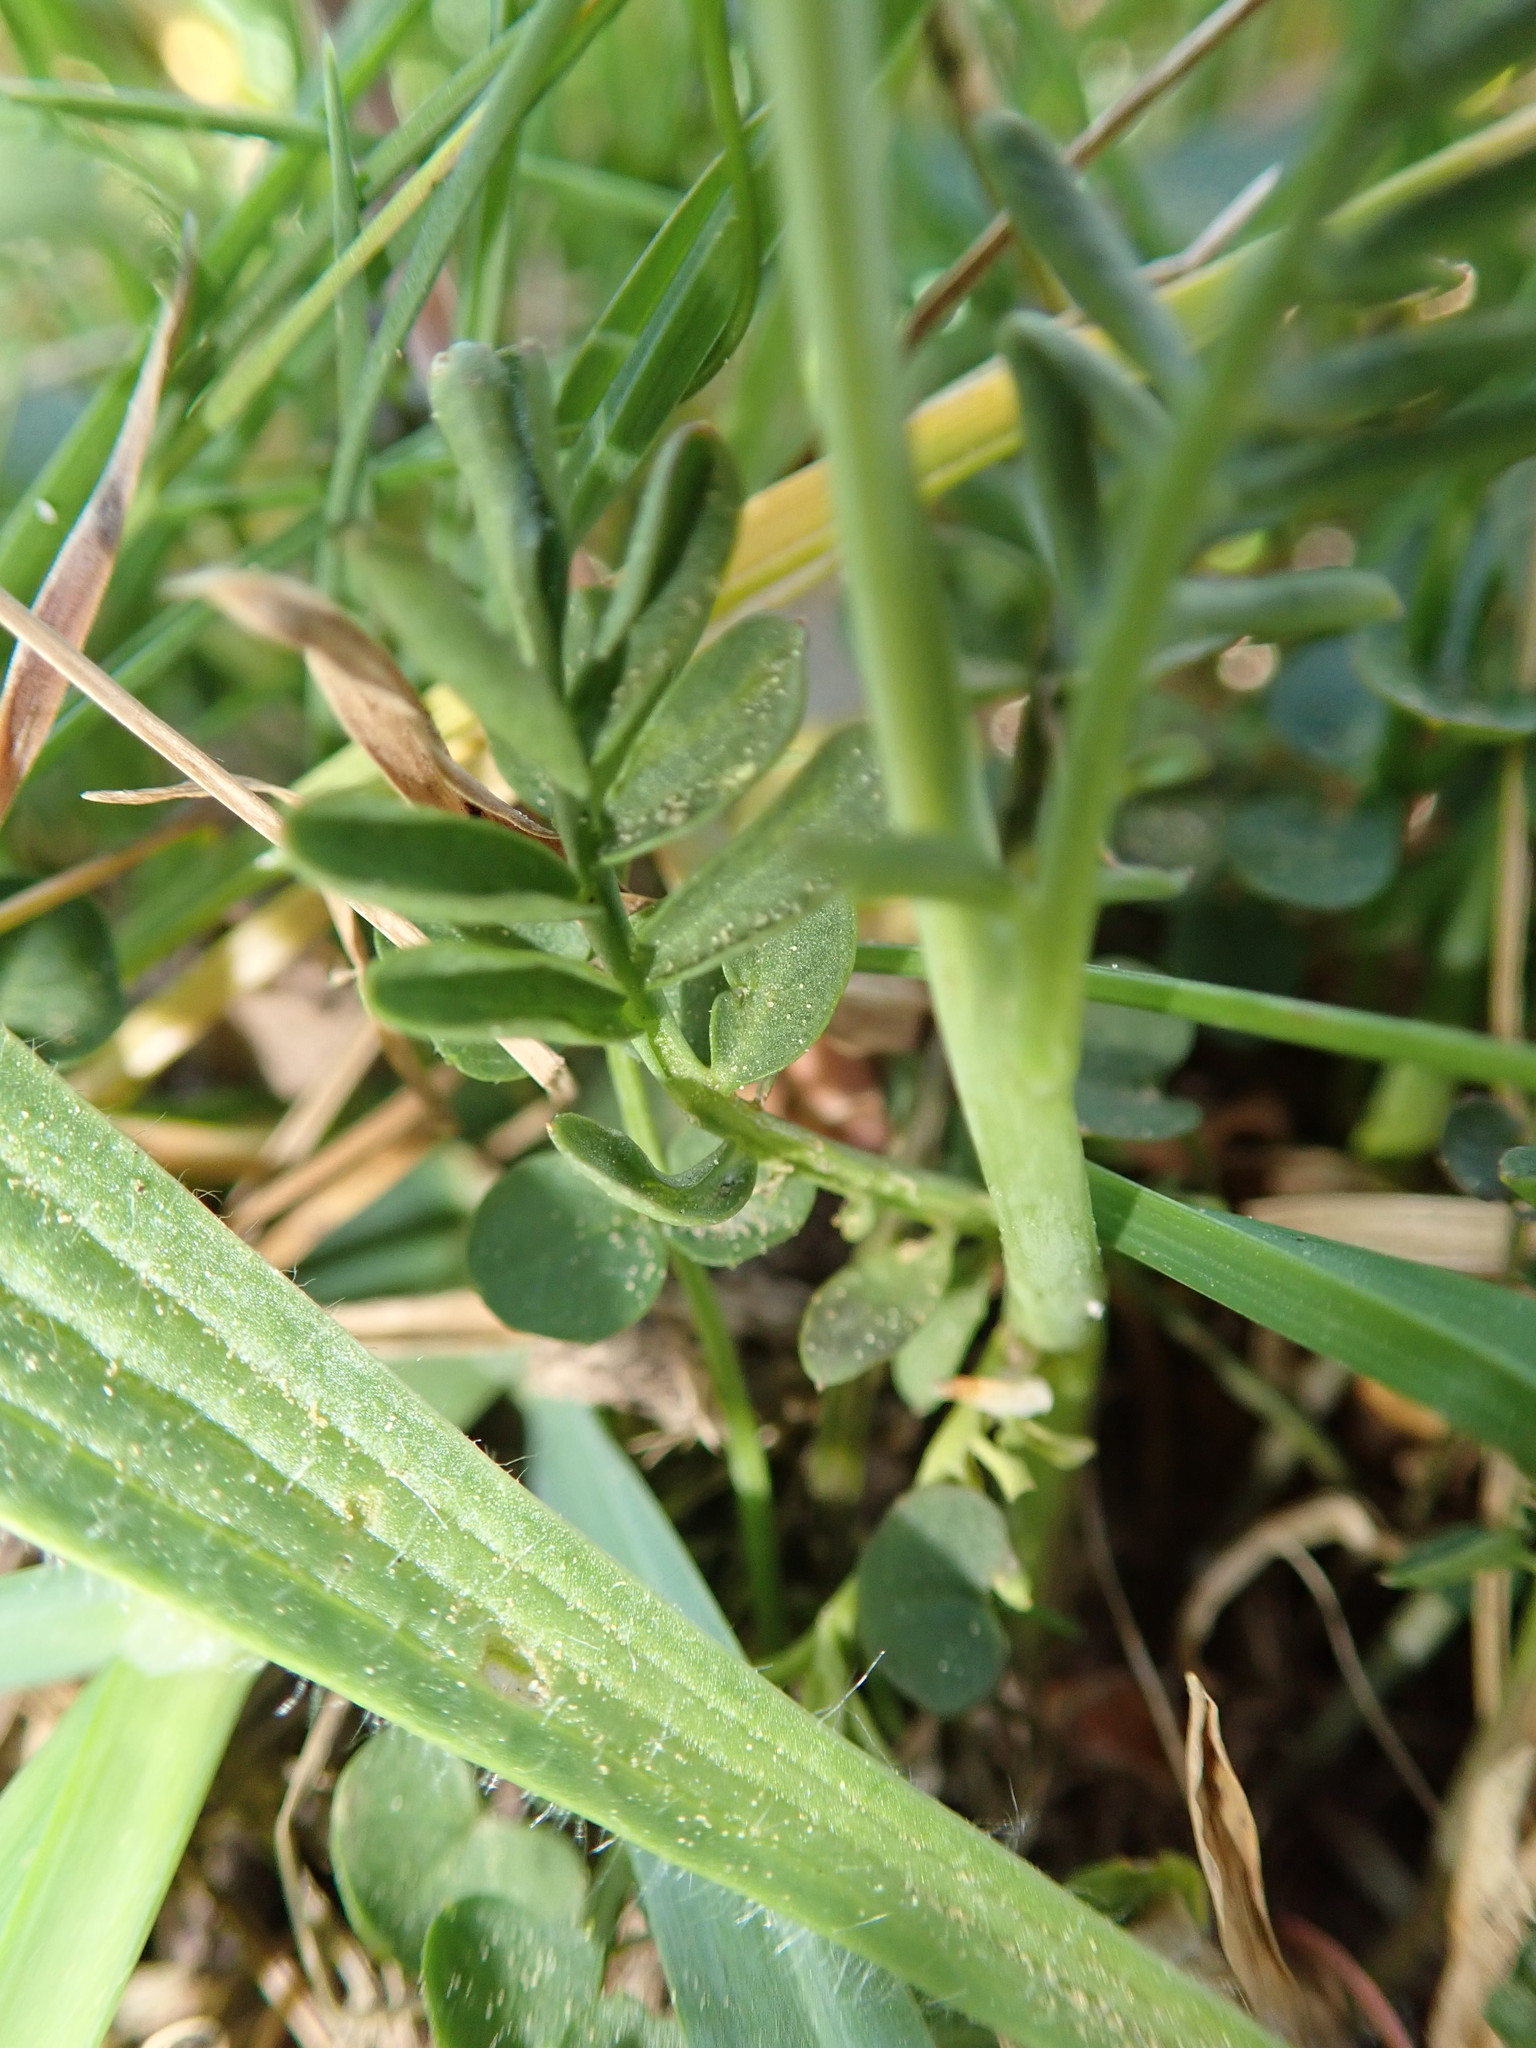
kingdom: Plantae
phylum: Tracheophyta
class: Magnoliopsida
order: Brassicales
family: Brassicaceae
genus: Cardamine
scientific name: Cardamine pratensis
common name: Cuckoo flower
